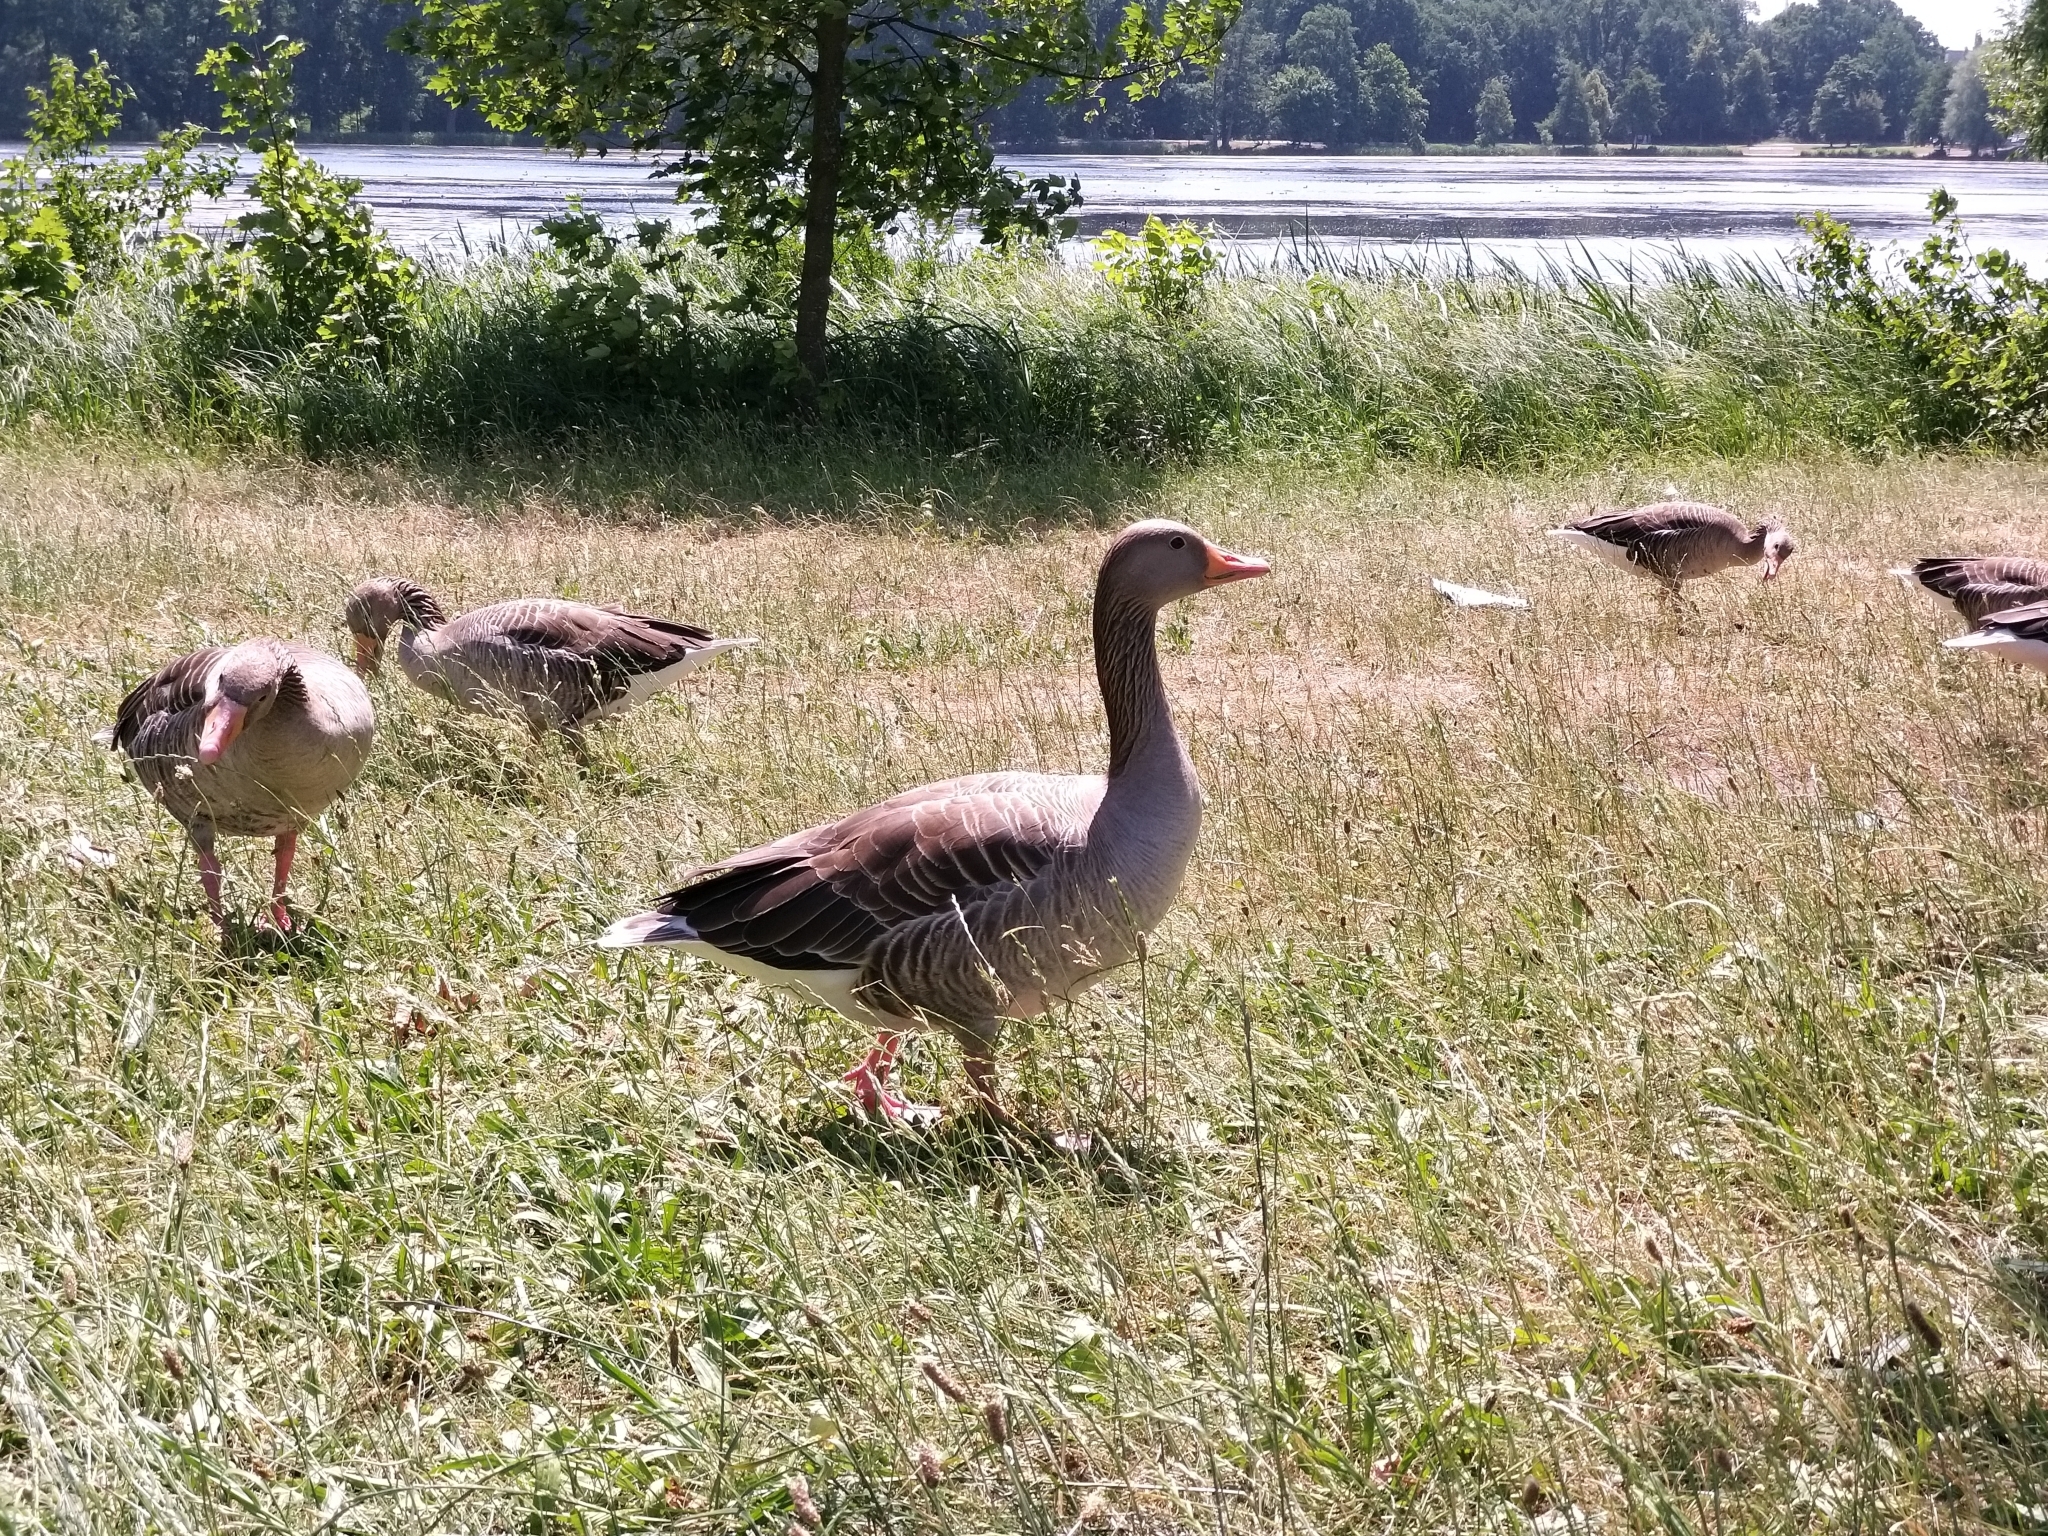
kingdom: Animalia
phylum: Chordata
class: Aves
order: Anseriformes
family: Anatidae
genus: Anser
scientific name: Anser anser
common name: Greylag goose
